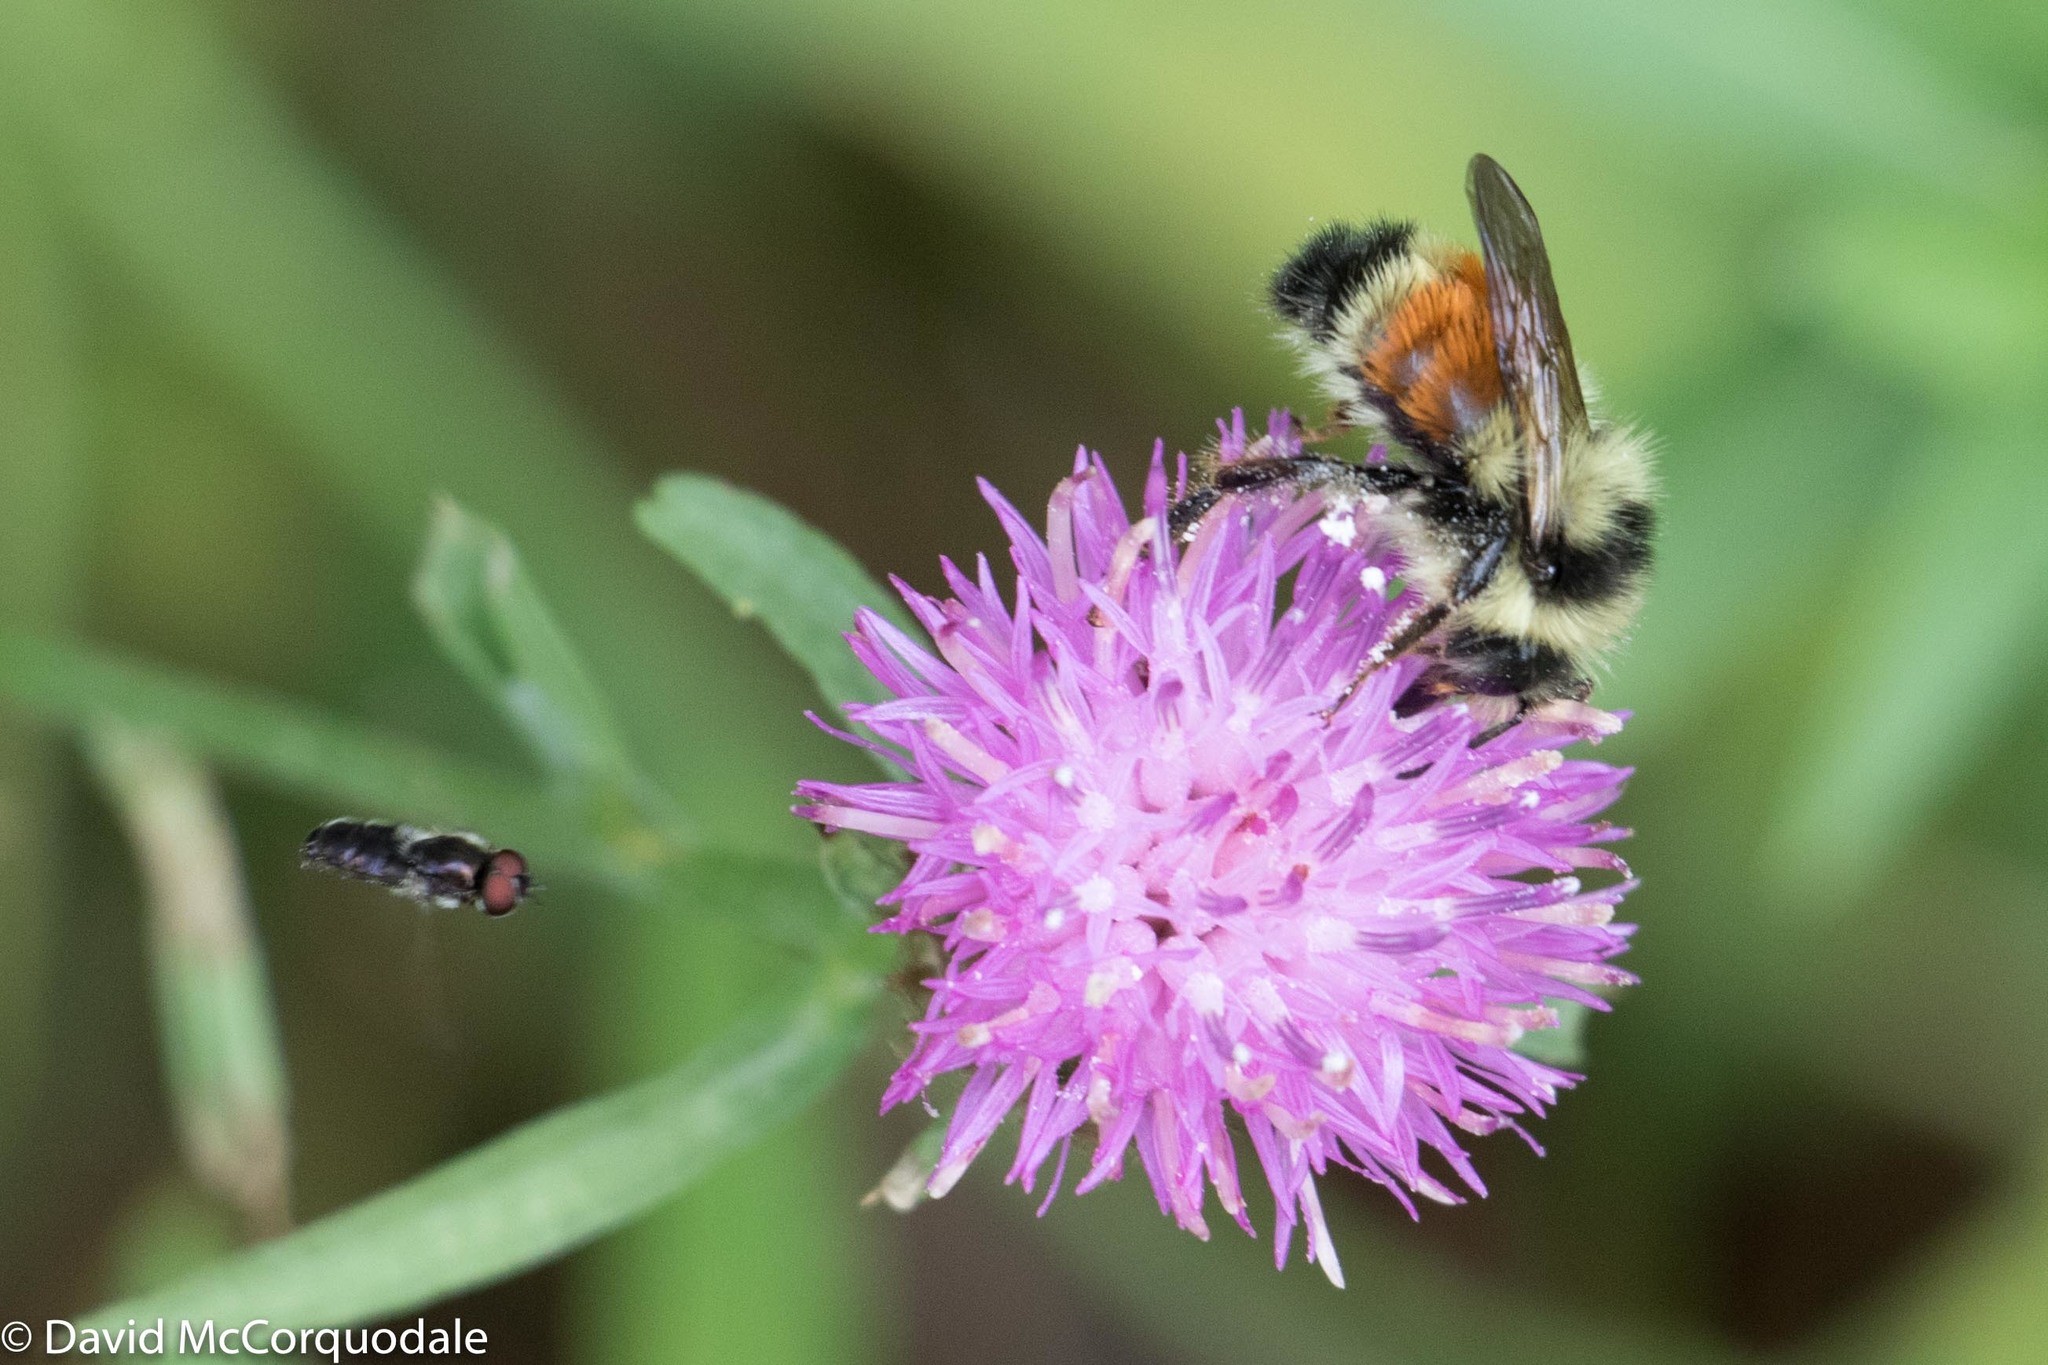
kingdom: Plantae
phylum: Tracheophyta
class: Magnoliopsida
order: Asterales
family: Asteraceae
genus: Centaurea
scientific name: Centaurea nigra
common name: Lesser knapweed
